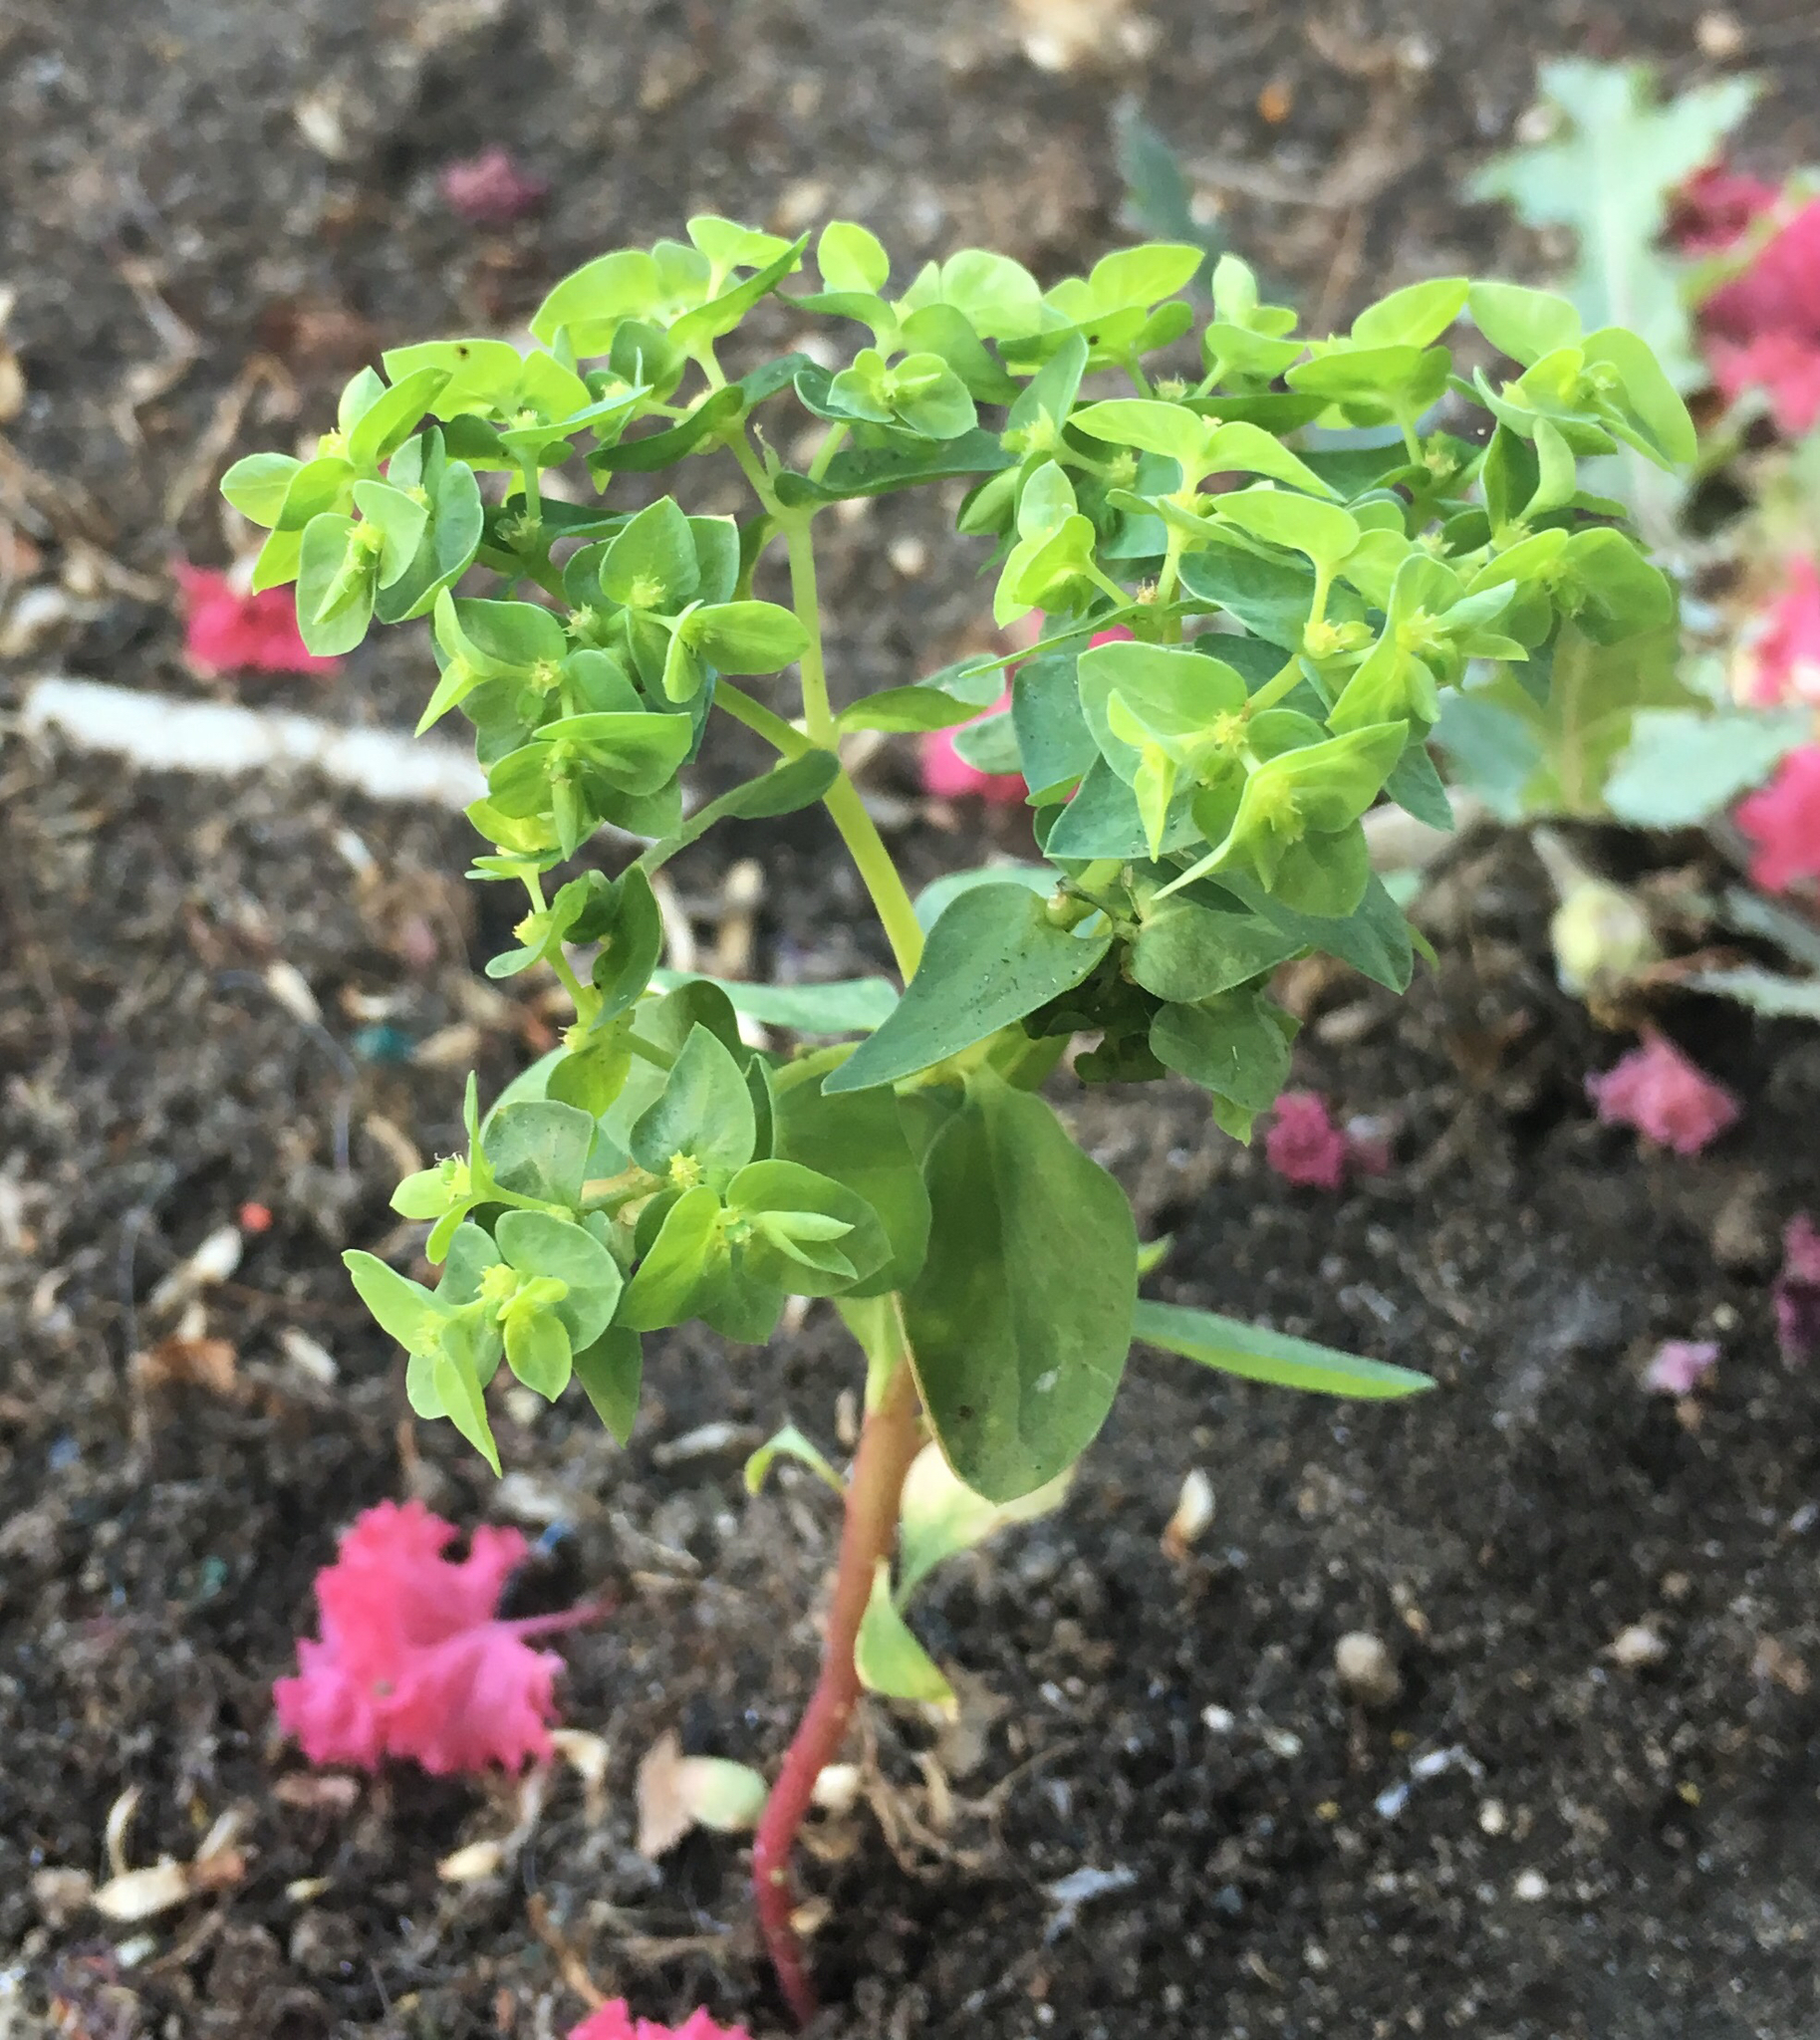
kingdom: Plantae
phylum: Tracheophyta
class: Magnoliopsida
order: Malpighiales
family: Euphorbiaceae
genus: Euphorbia
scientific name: Euphorbia peplus
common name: Petty spurge
